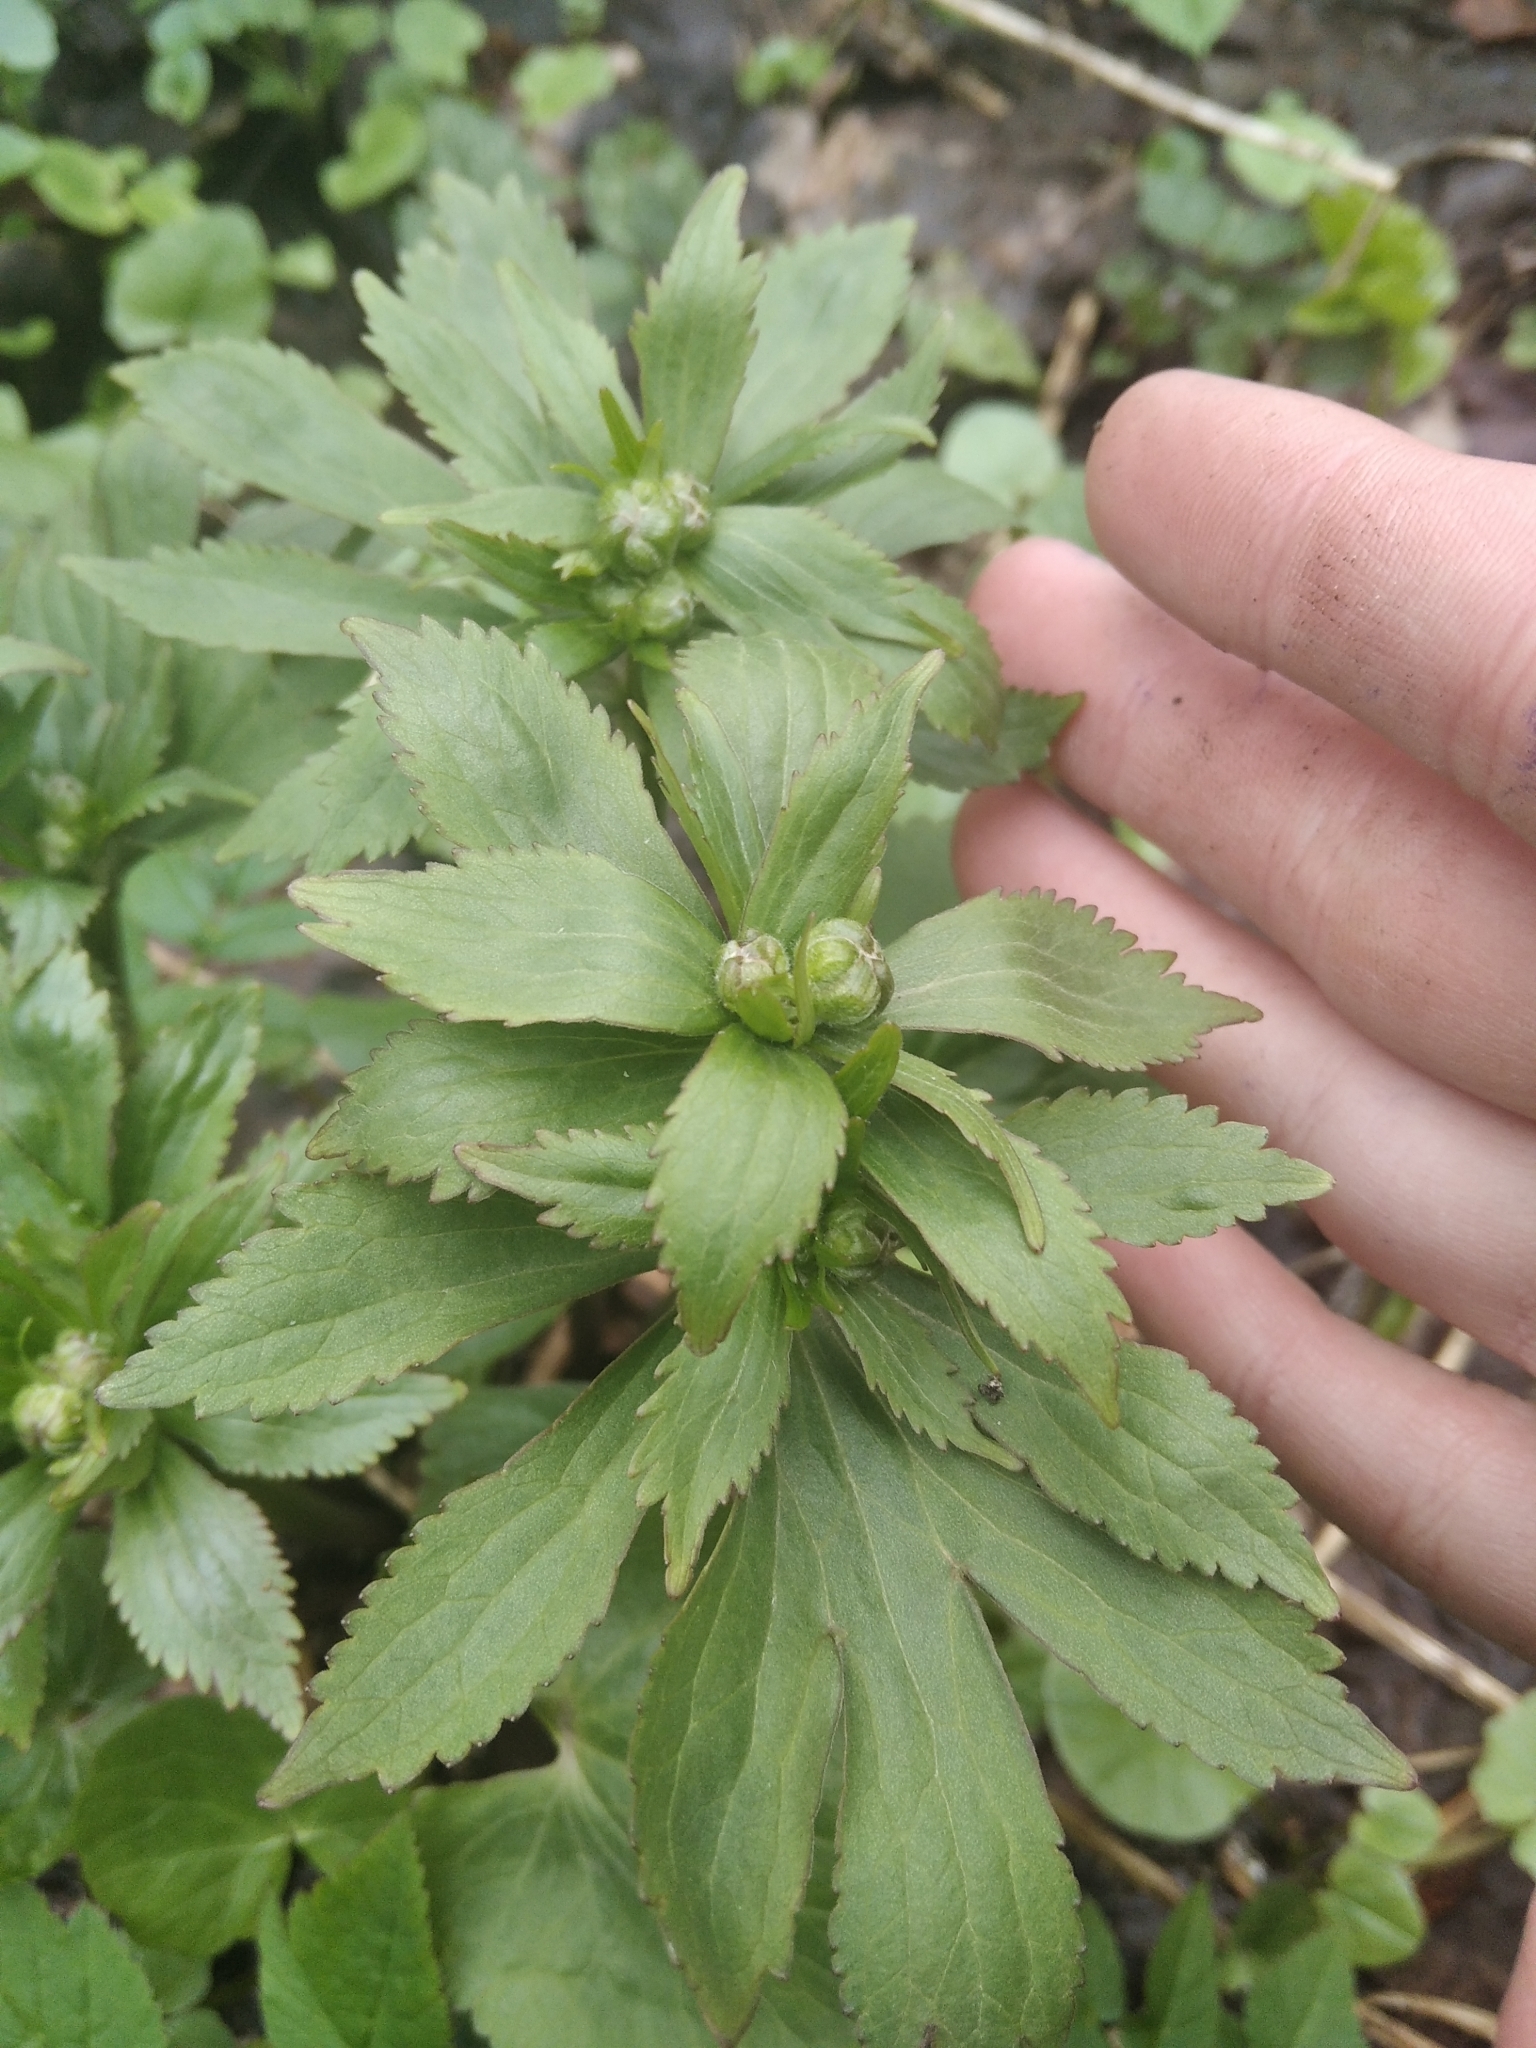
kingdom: Plantae
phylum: Tracheophyta
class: Magnoliopsida
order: Ranunculales
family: Ranunculaceae
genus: Ranunculus
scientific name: Ranunculus cassubicus
